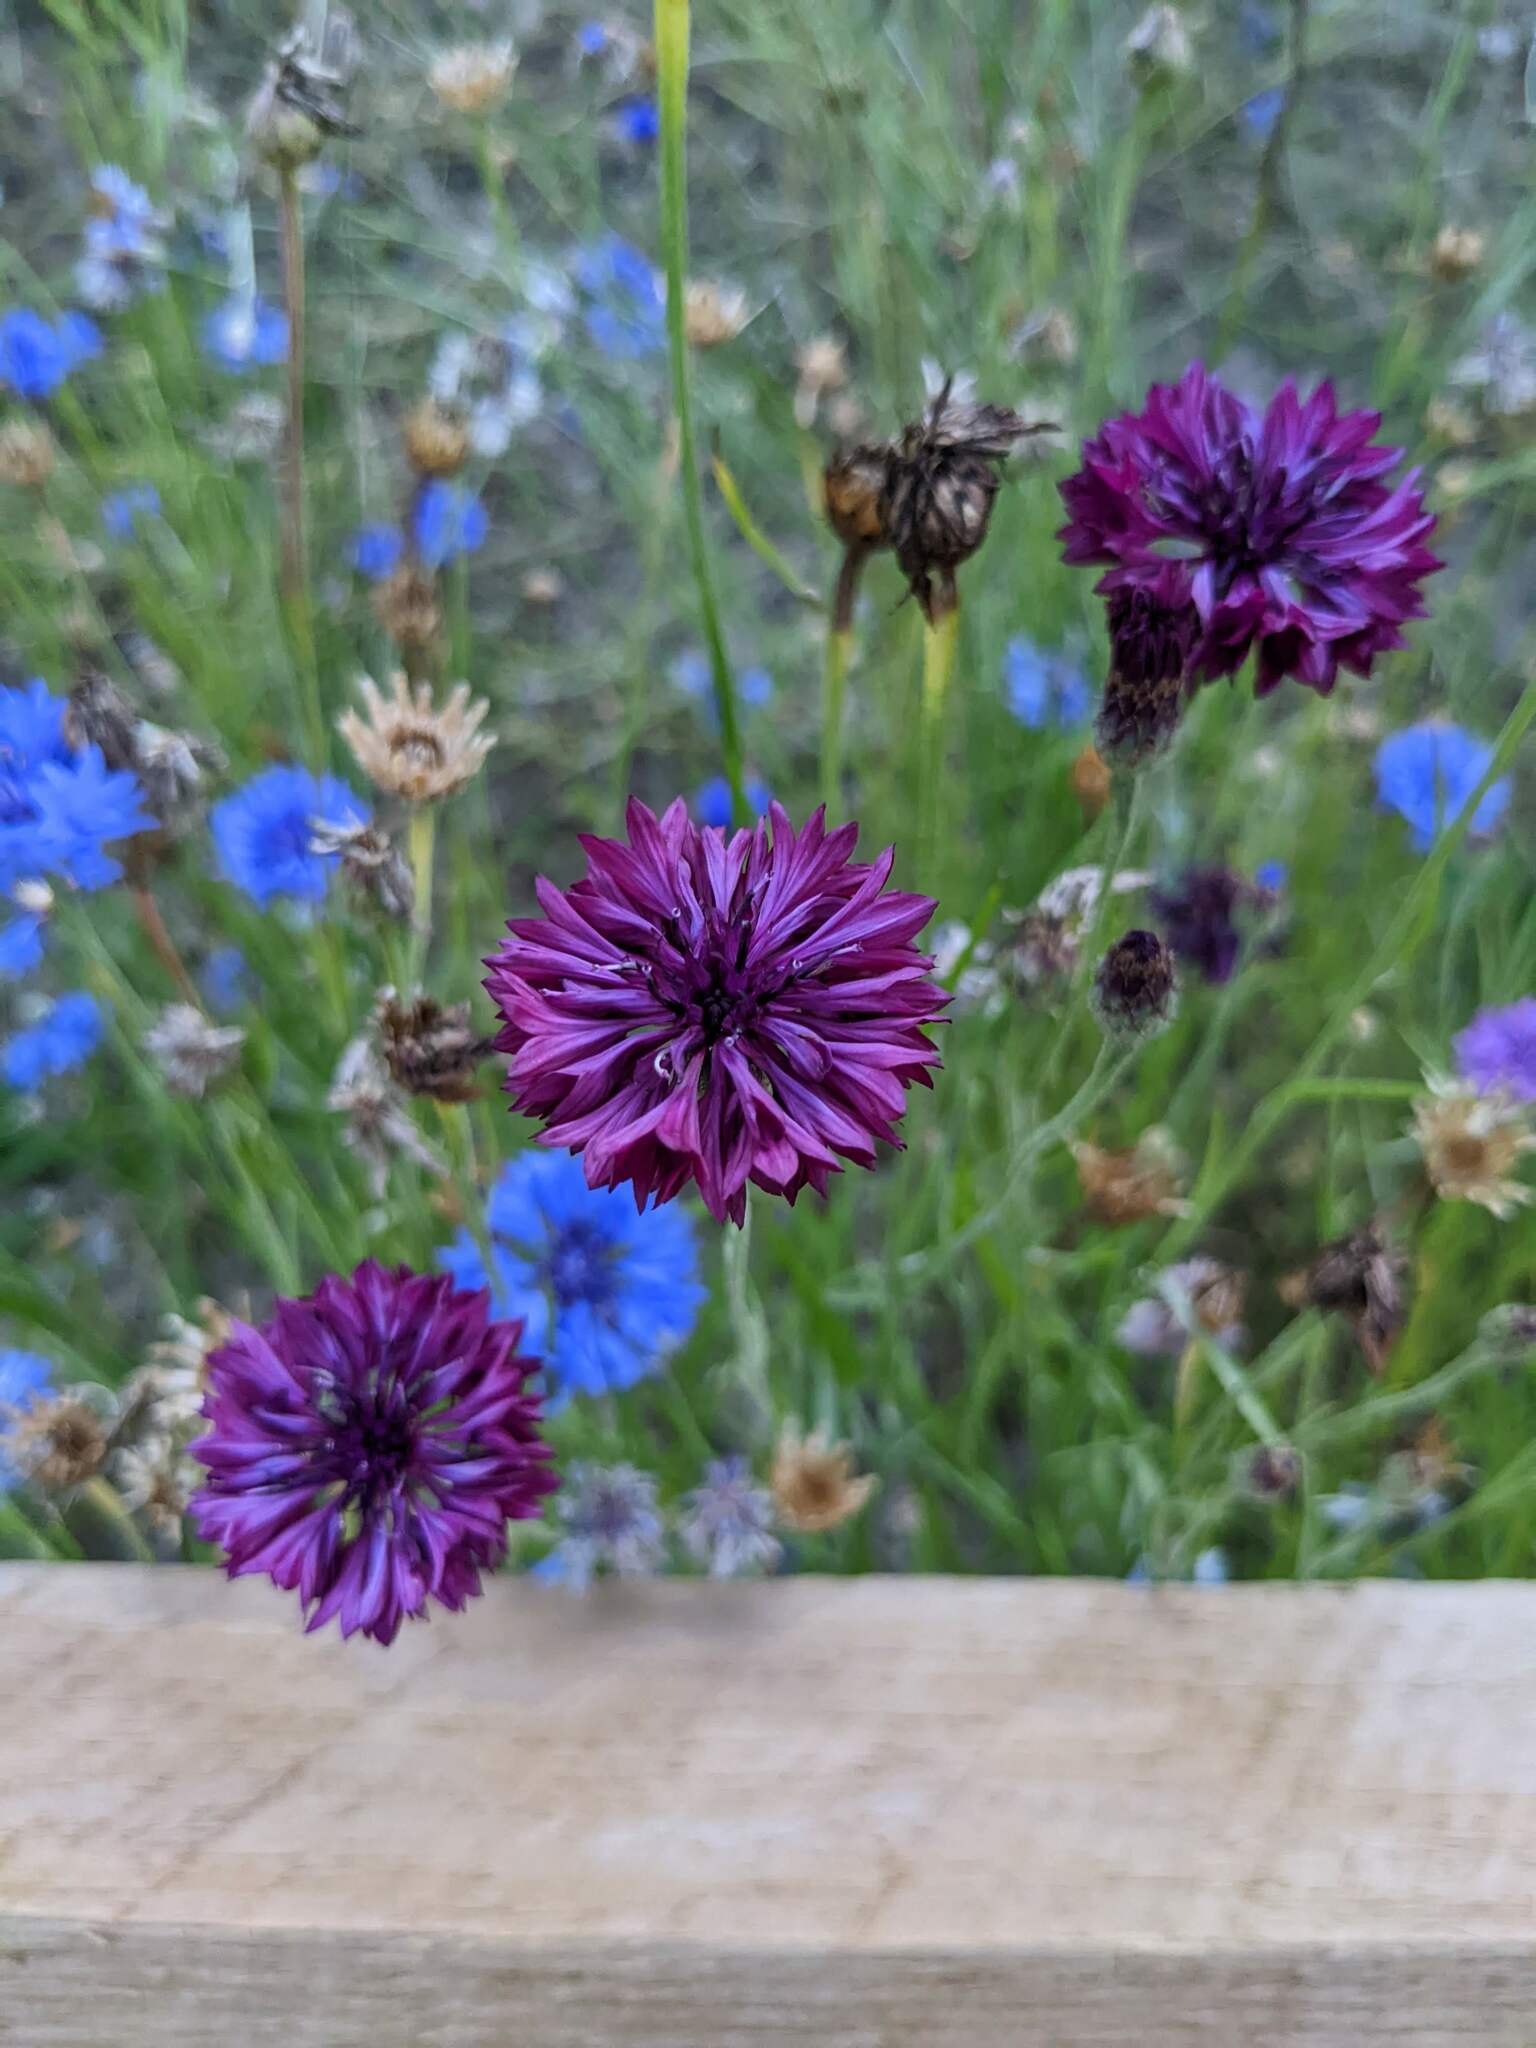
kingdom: Plantae
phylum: Tracheophyta
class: Magnoliopsida
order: Asterales
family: Asteraceae
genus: Centaurea
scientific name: Centaurea cyanus
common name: Cornflower
